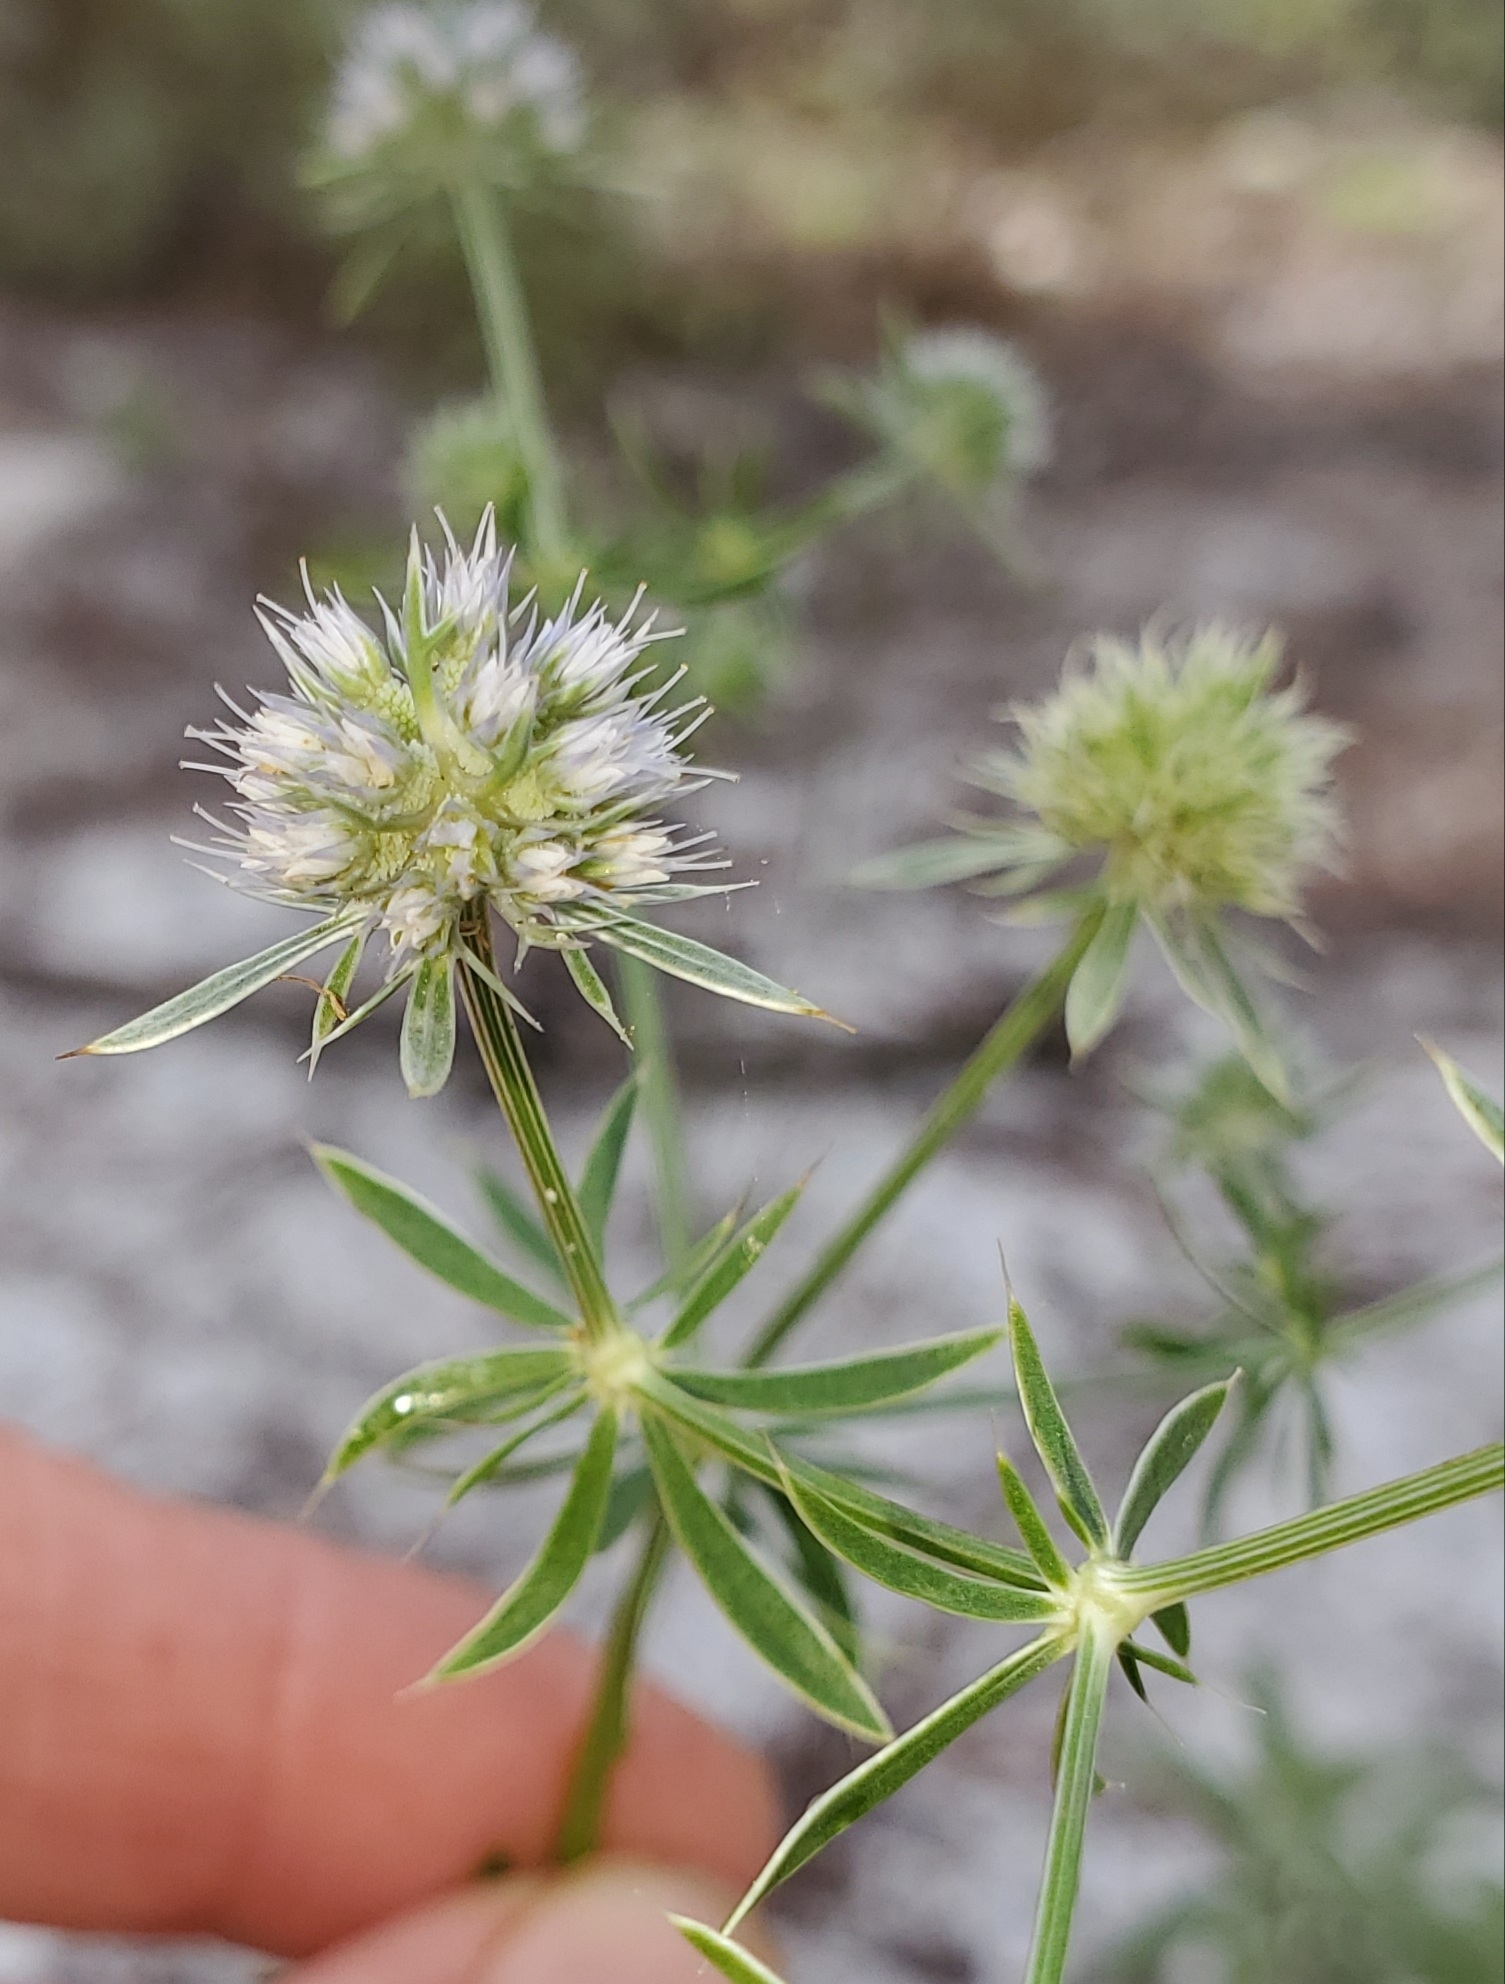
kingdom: Plantae
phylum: Tracheophyta
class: Magnoliopsida
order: Apiales
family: Apiaceae
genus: Eryngium
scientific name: Eryngium aromaticum
